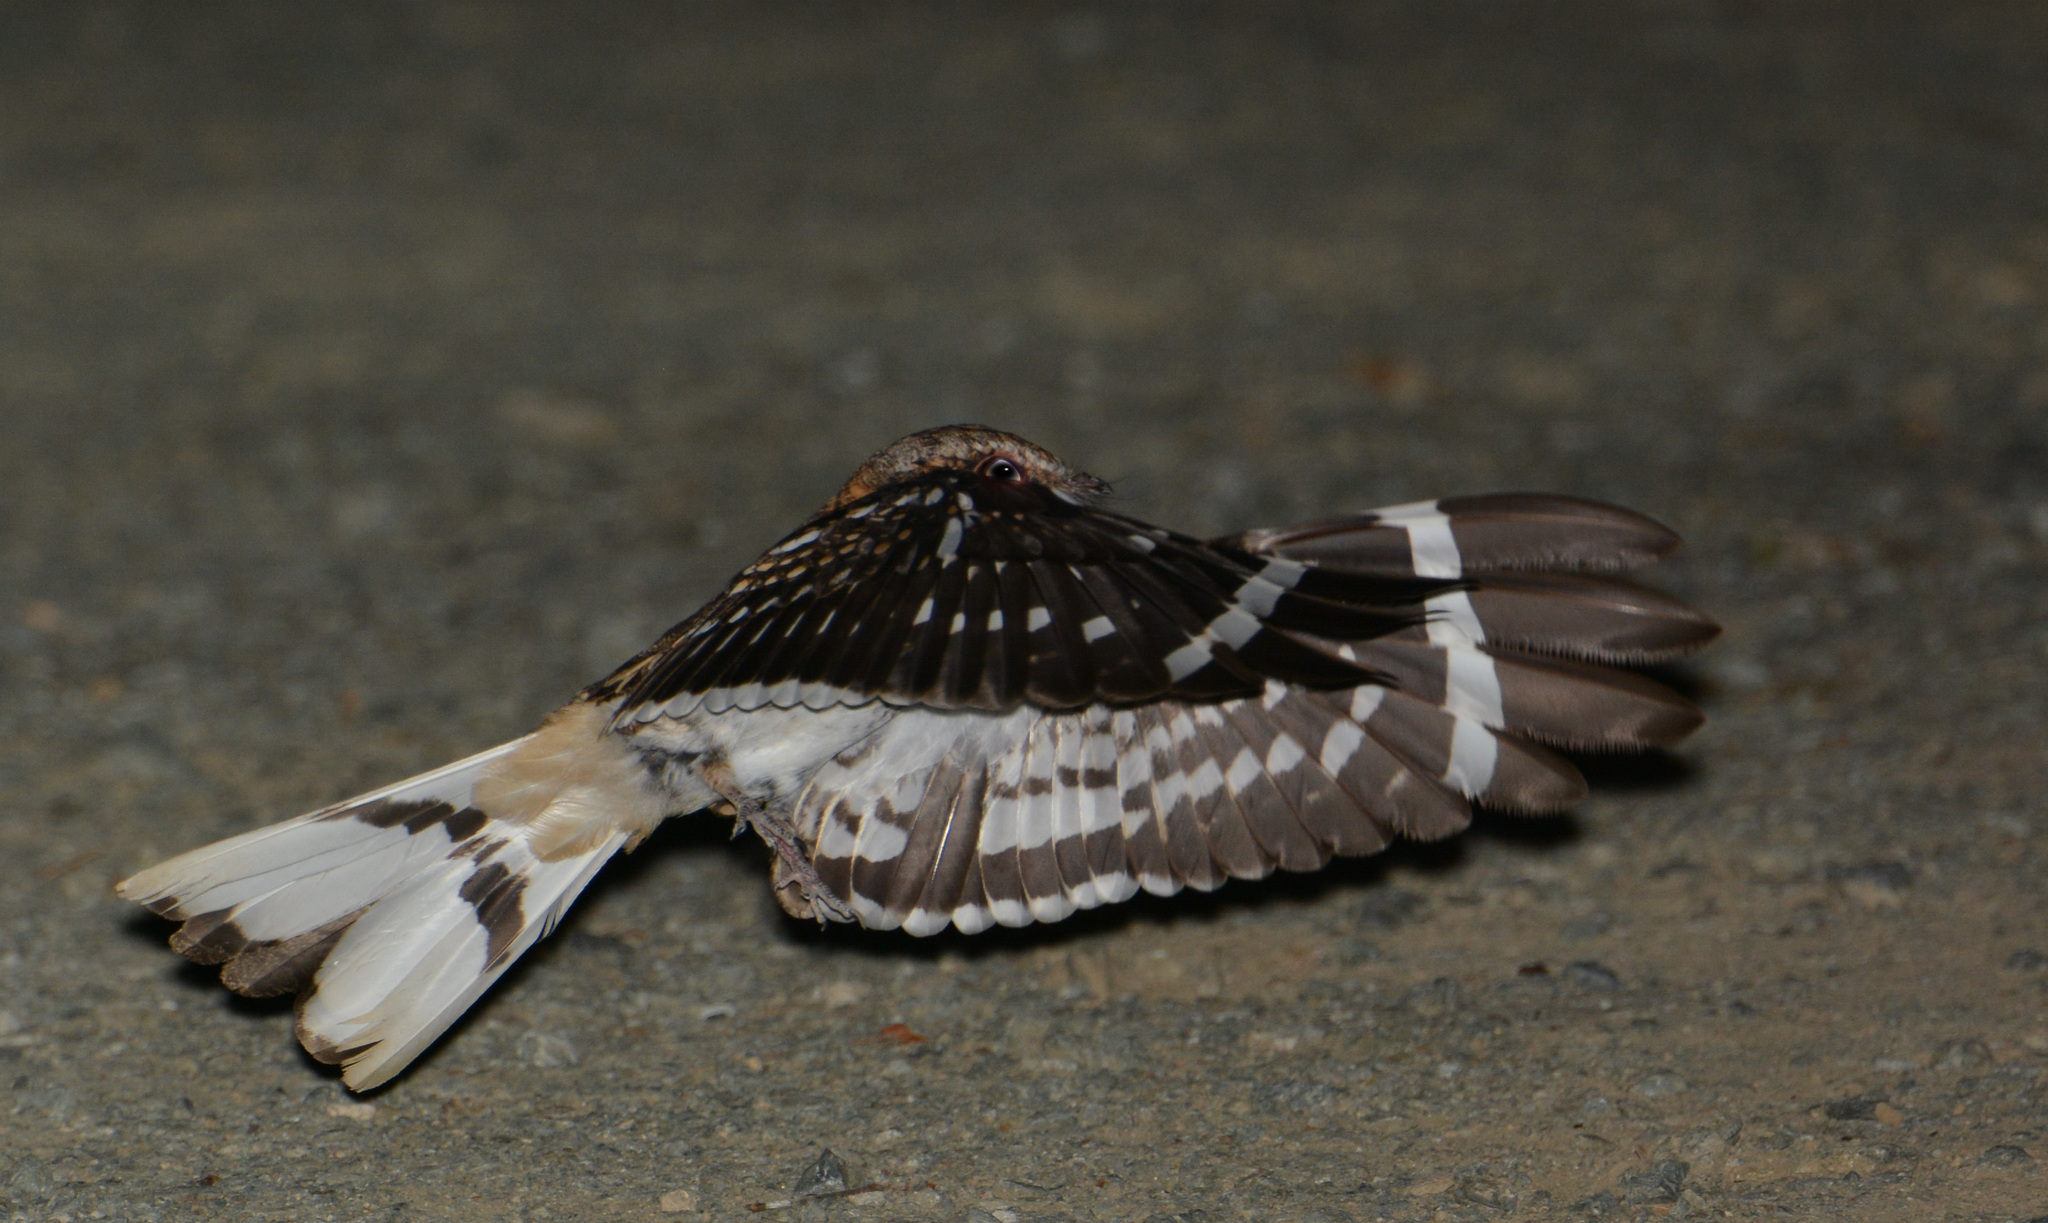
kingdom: Animalia
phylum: Chordata
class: Aves
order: Caprimulgiformes
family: Caprimulgidae
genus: Hydropsalis
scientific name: Hydropsalis cayennensis
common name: White-tailed nightjar
